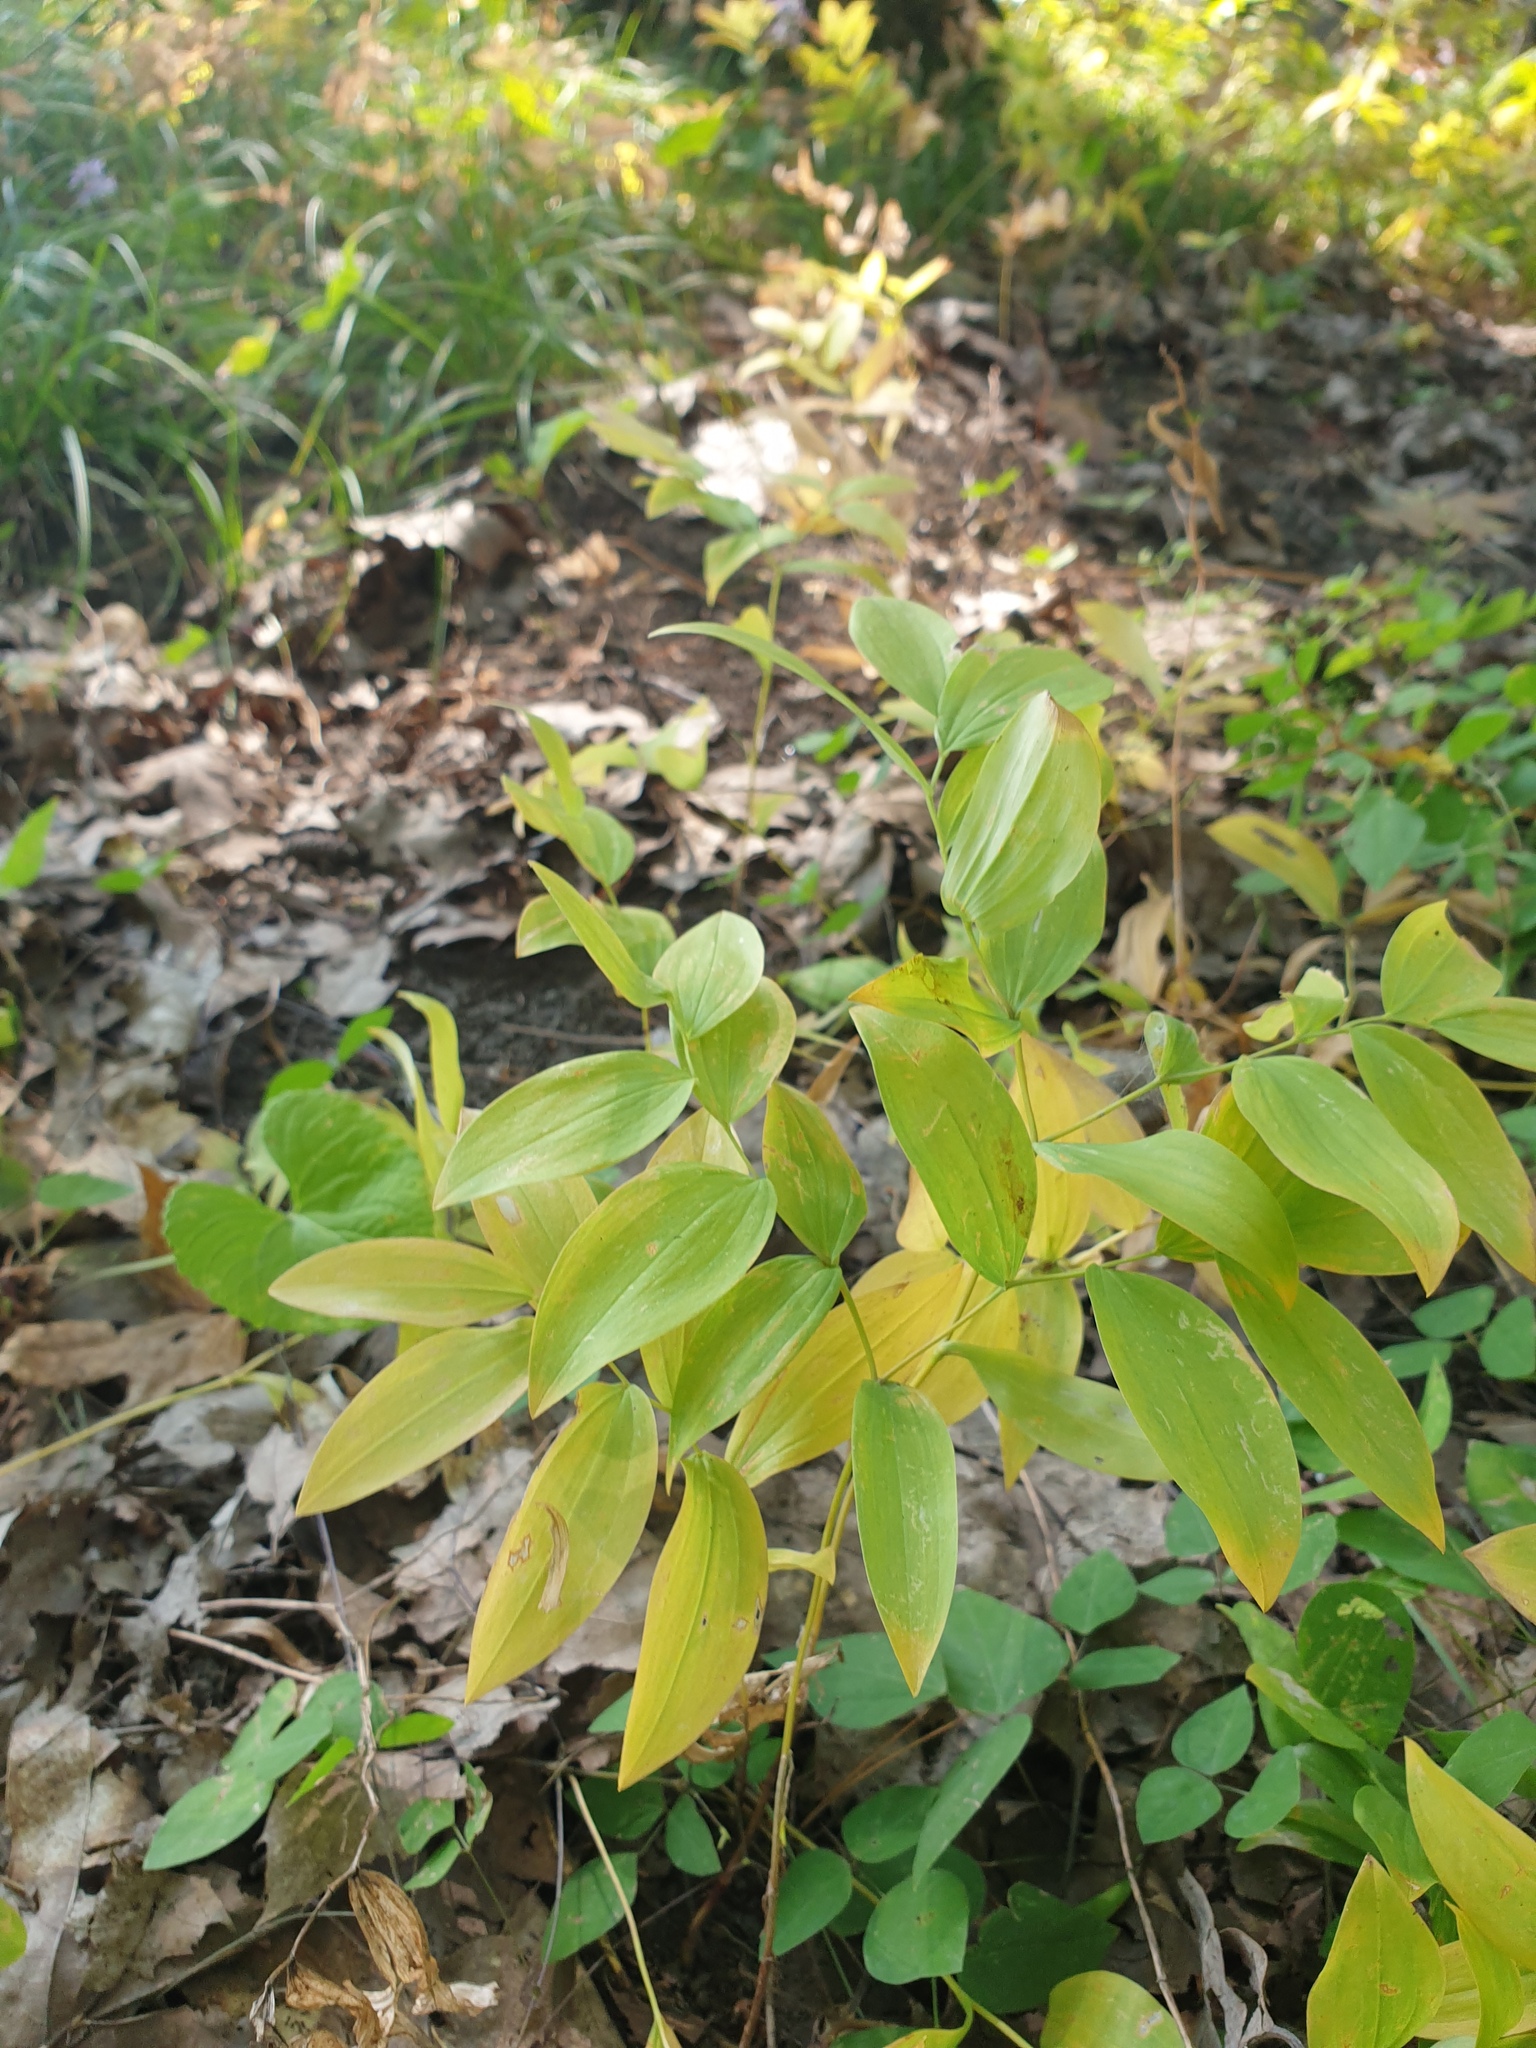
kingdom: Plantae
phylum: Tracheophyta
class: Liliopsida
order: Liliales
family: Colchicaceae
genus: Uvularia
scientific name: Uvularia sessilifolia
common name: Straw-lily
